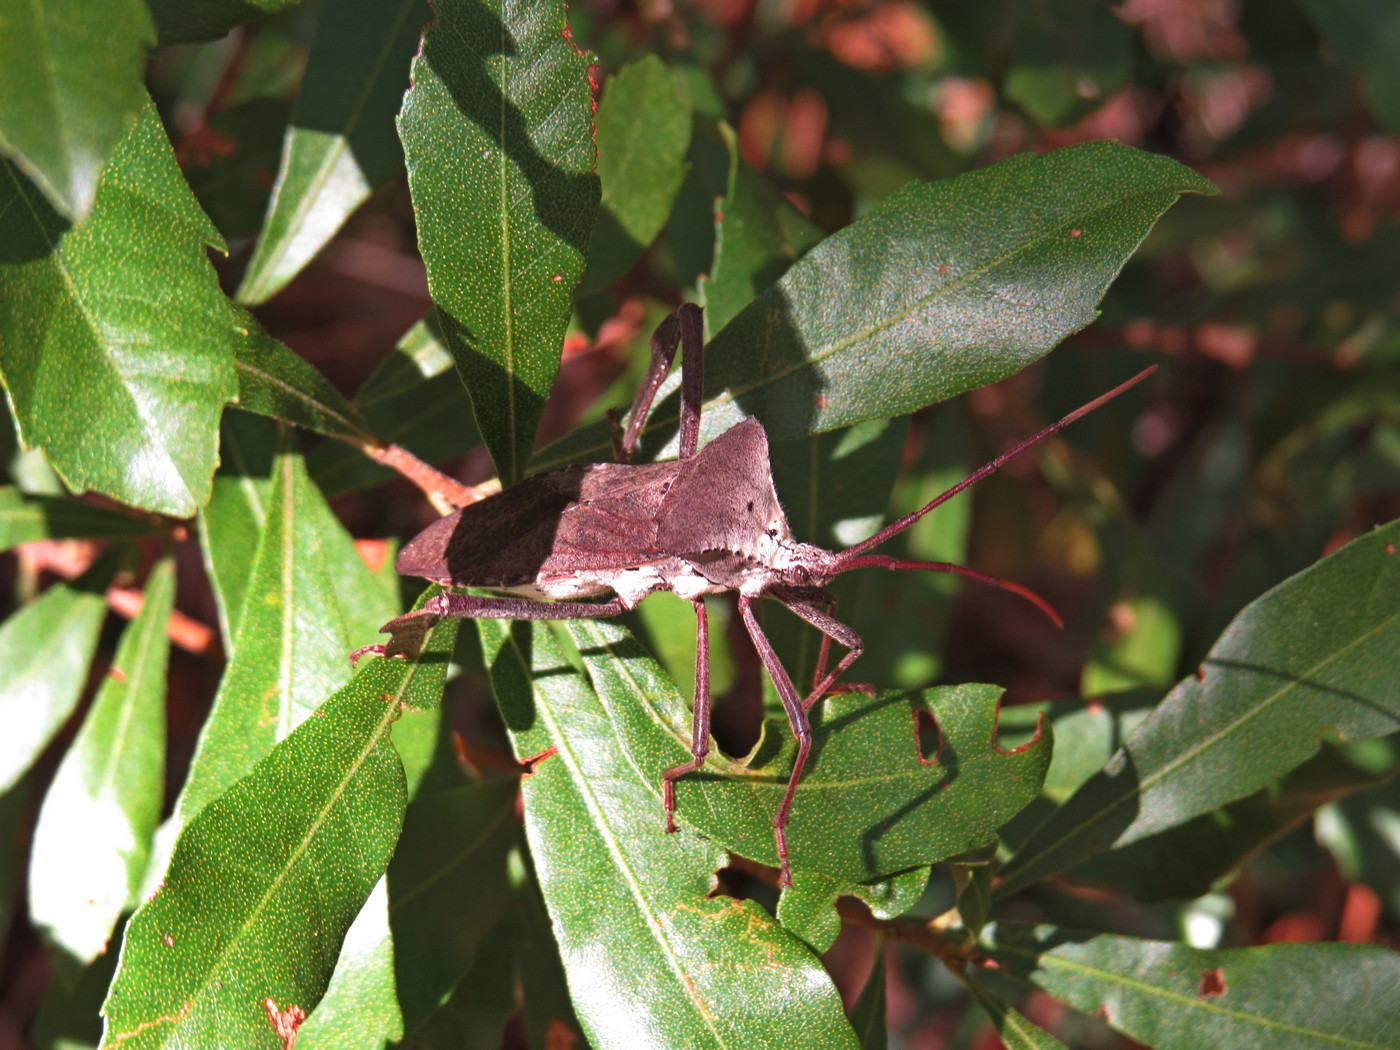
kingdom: Animalia
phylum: Arthropoda
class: Insecta
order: Hemiptera
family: Coreidae
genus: Acanthocephala
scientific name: Acanthocephala declivis
